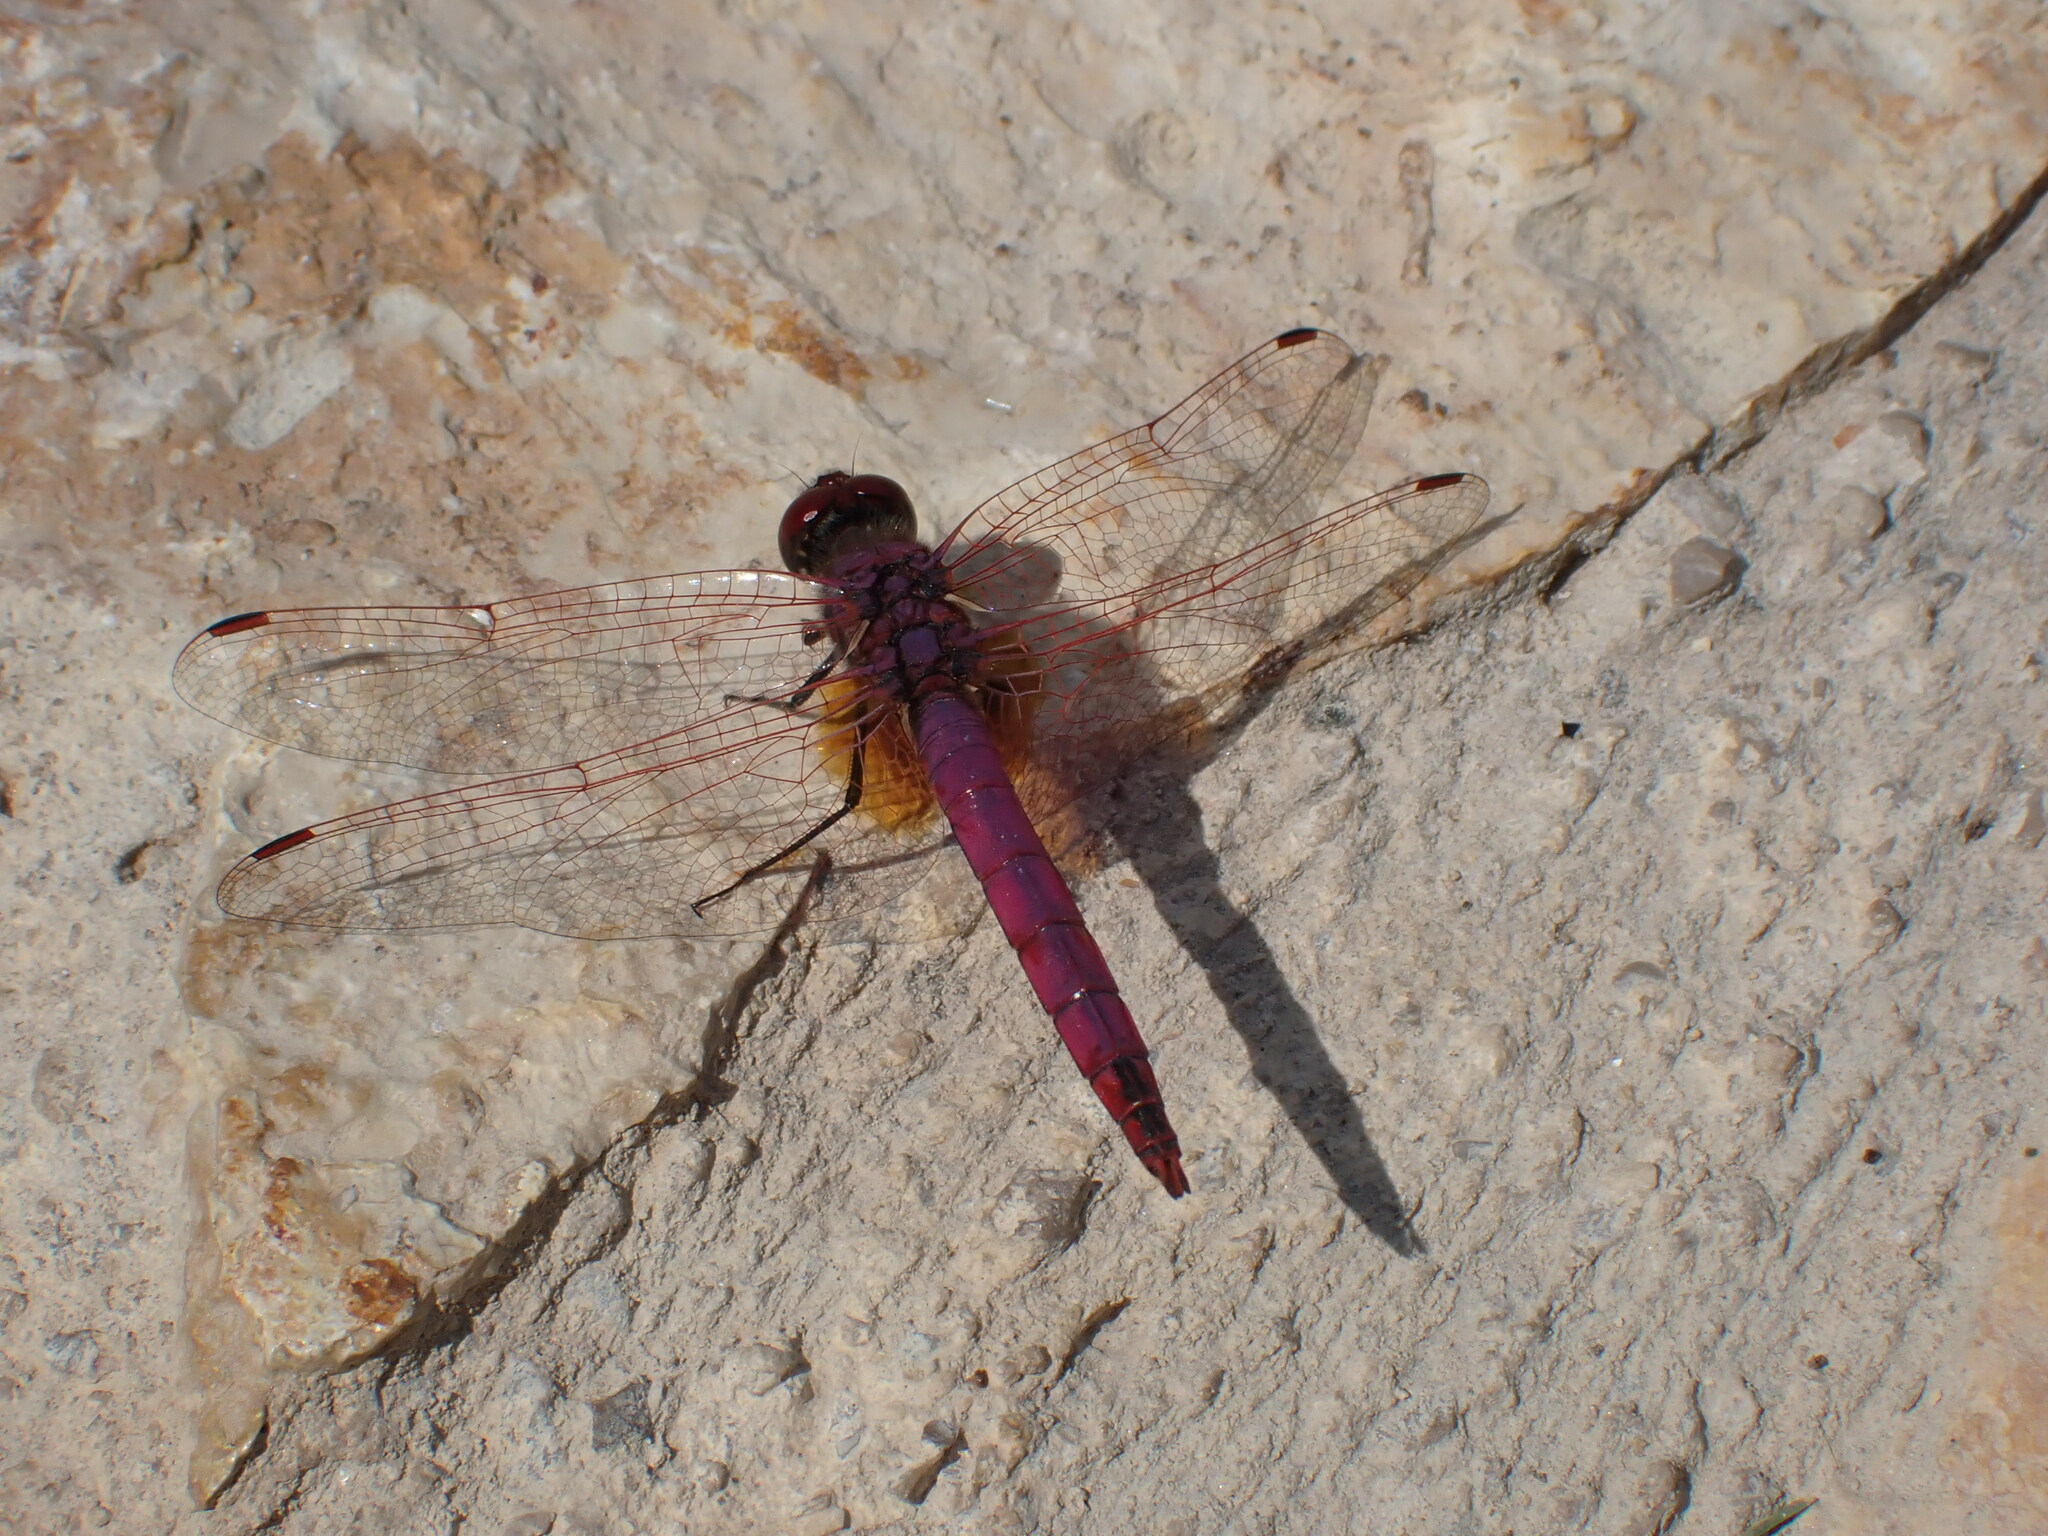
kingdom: Animalia
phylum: Arthropoda
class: Insecta
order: Odonata
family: Libellulidae
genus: Trithemis
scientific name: Trithemis annulata
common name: Violet dropwing
